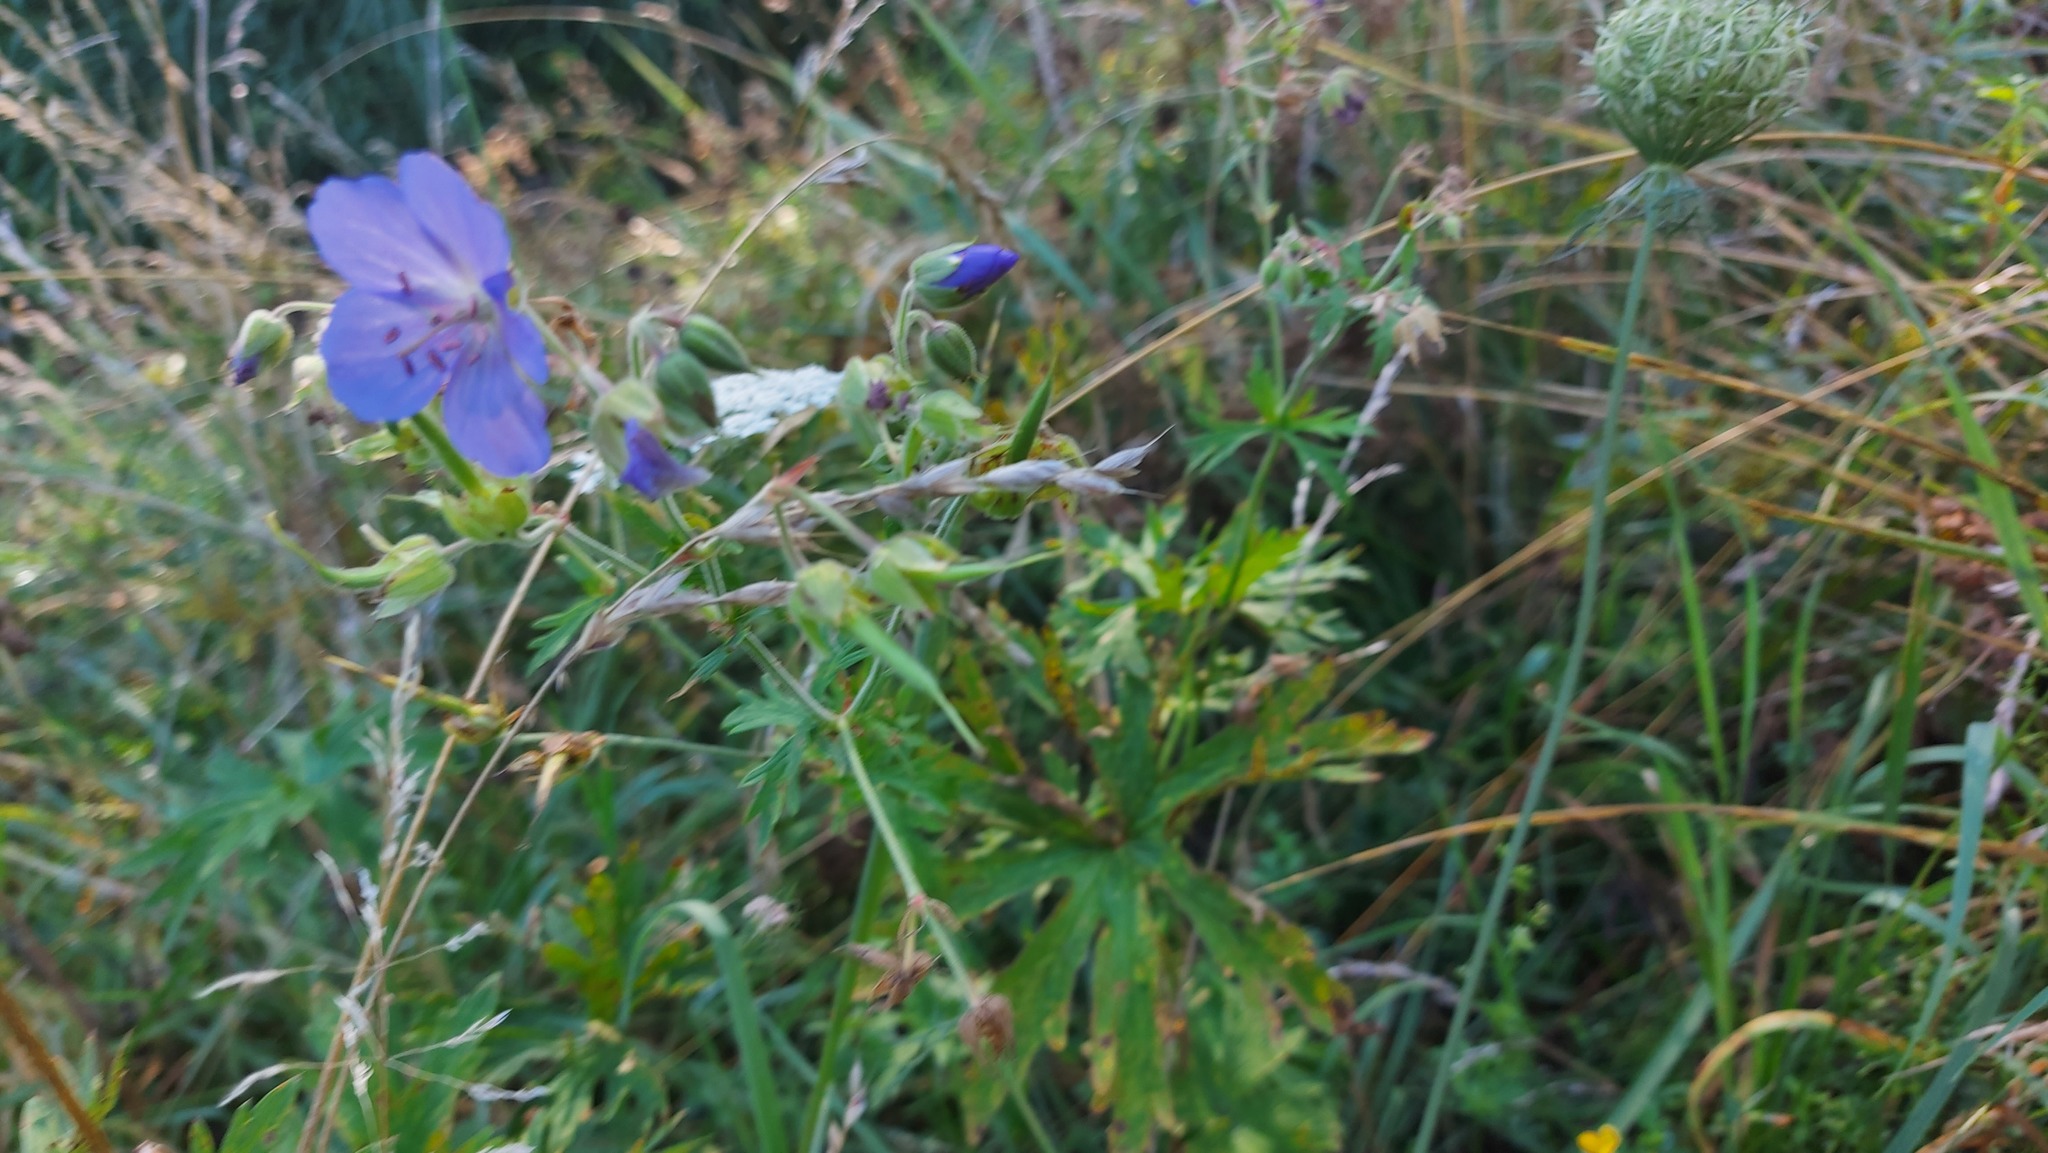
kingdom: Plantae
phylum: Tracheophyta
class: Magnoliopsida
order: Geraniales
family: Geraniaceae
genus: Geranium
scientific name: Geranium pratense
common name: Meadow crane's-bill
